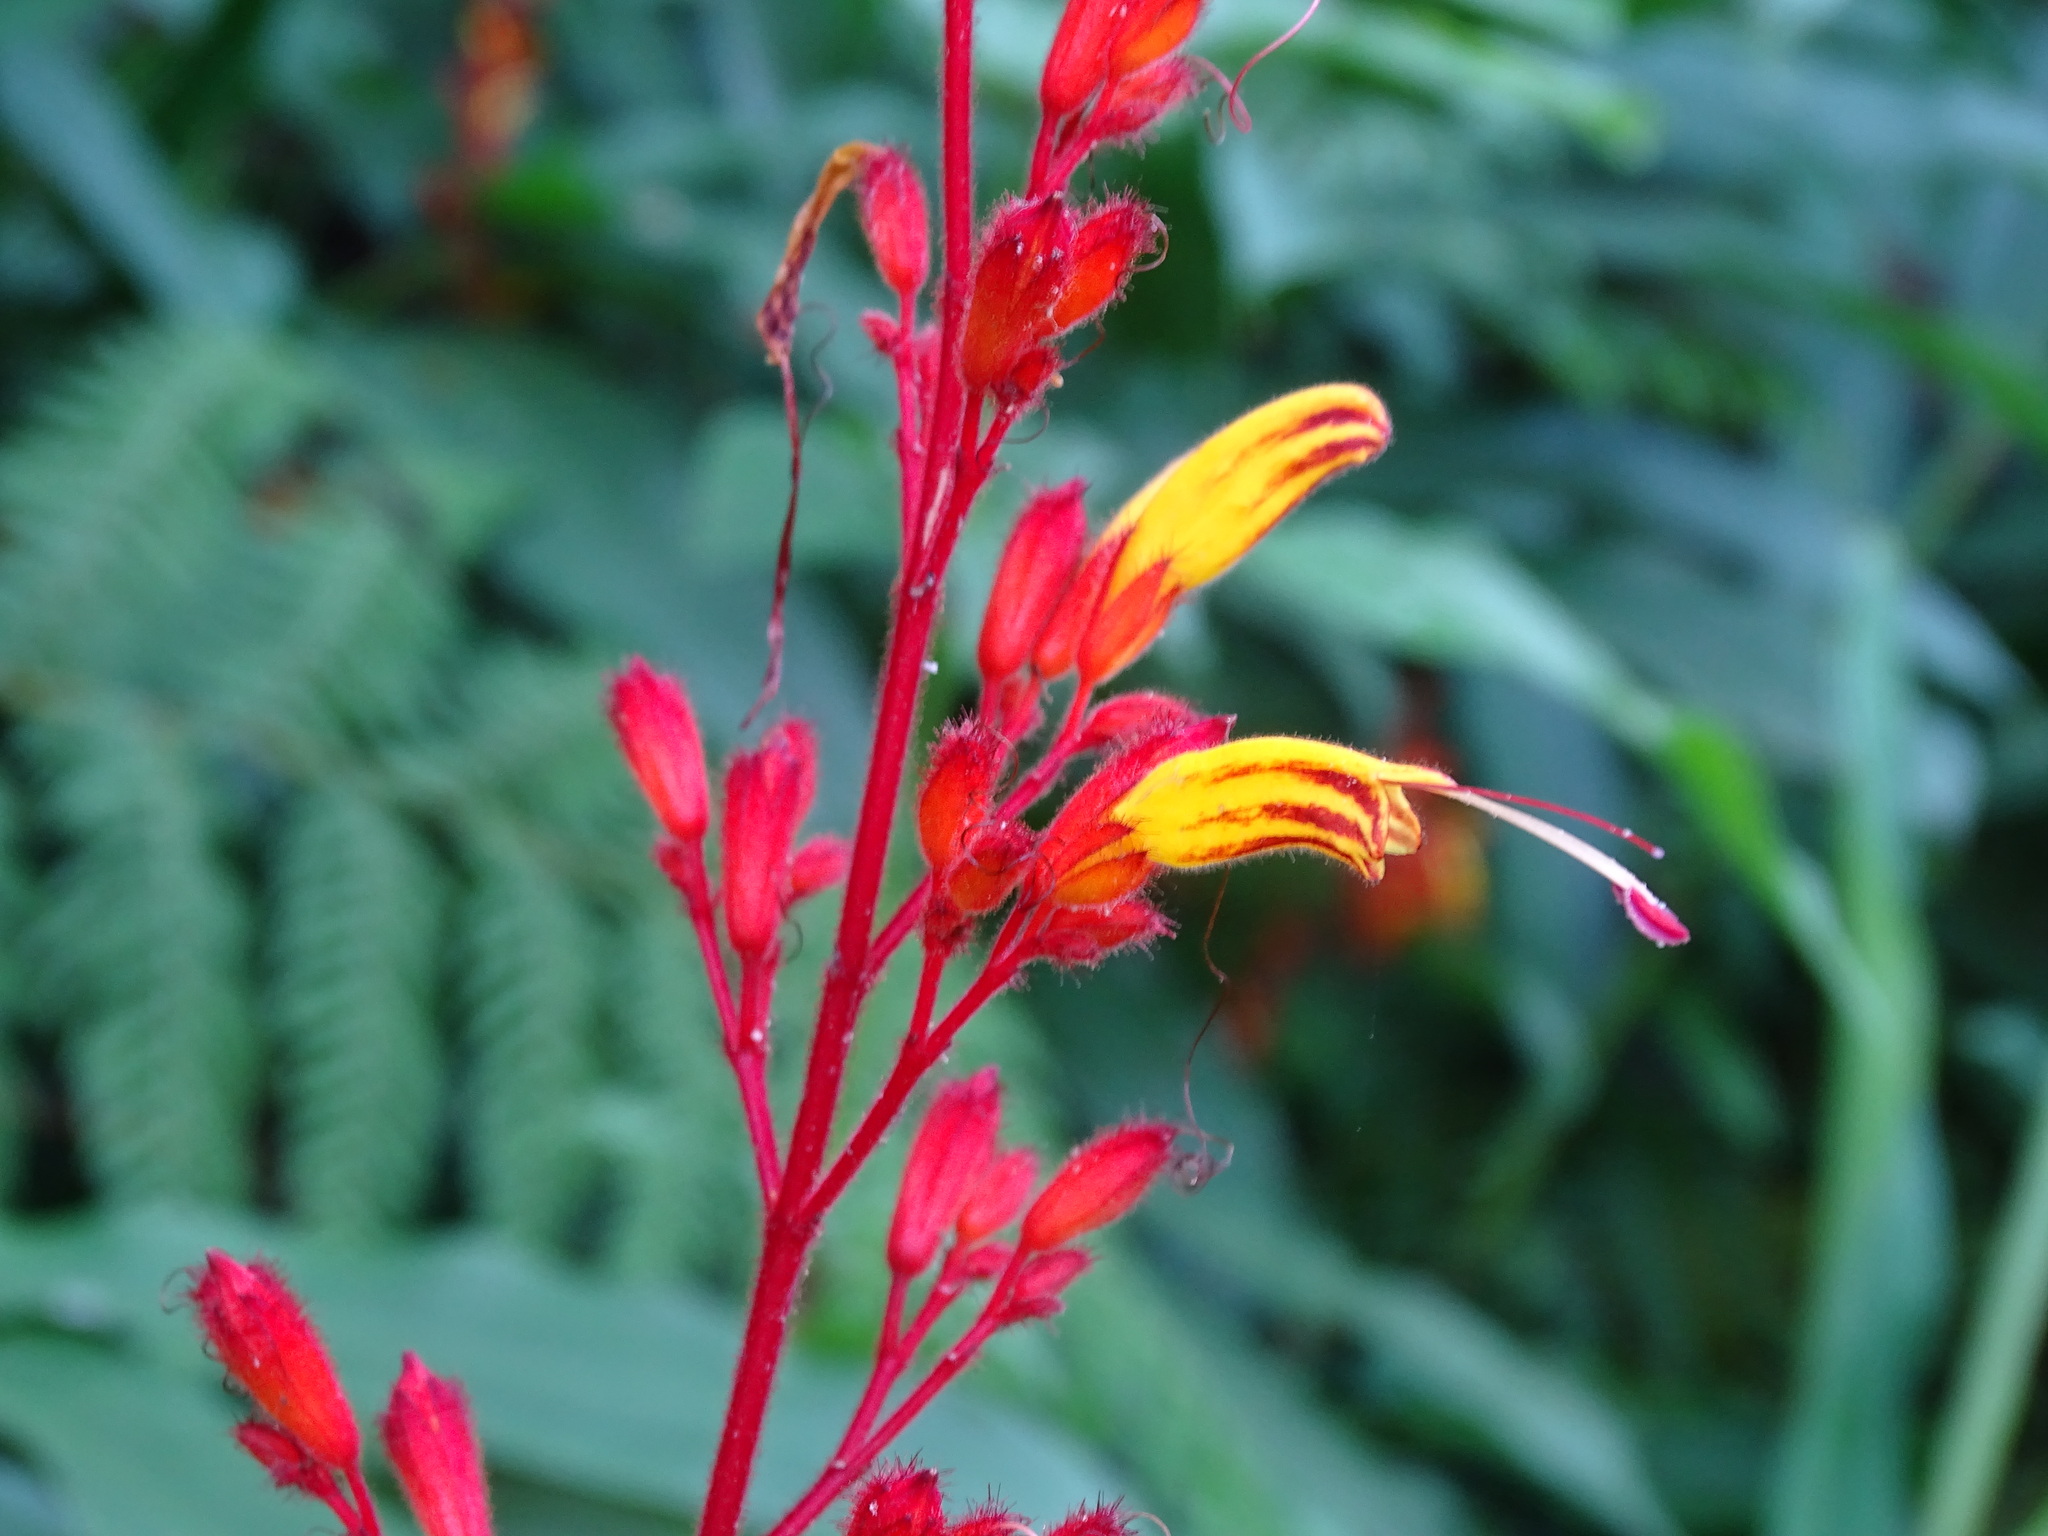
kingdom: Plantae
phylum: Tracheophyta
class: Magnoliopsida
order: Lamiales
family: Acanthaceae
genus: Stenostephanus
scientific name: Stenostephanus monolophus
